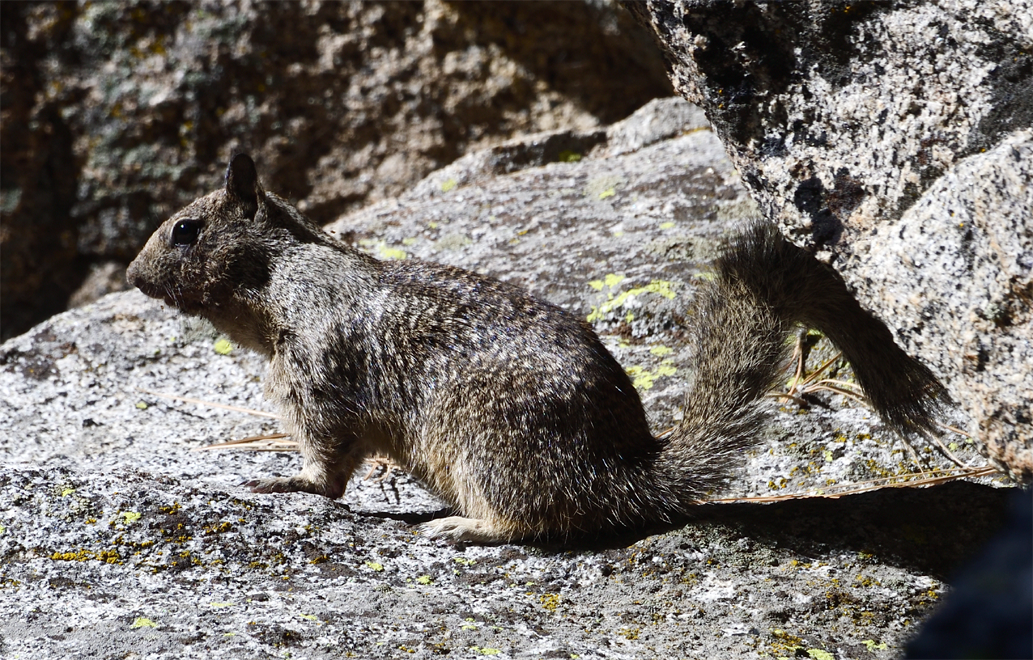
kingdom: Animalia
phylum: Chordata
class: Mammalia
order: Rodentia
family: Sciuridae
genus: Otospermophilus
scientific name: Otospermophilus beecheyi
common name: California ground squirrel
